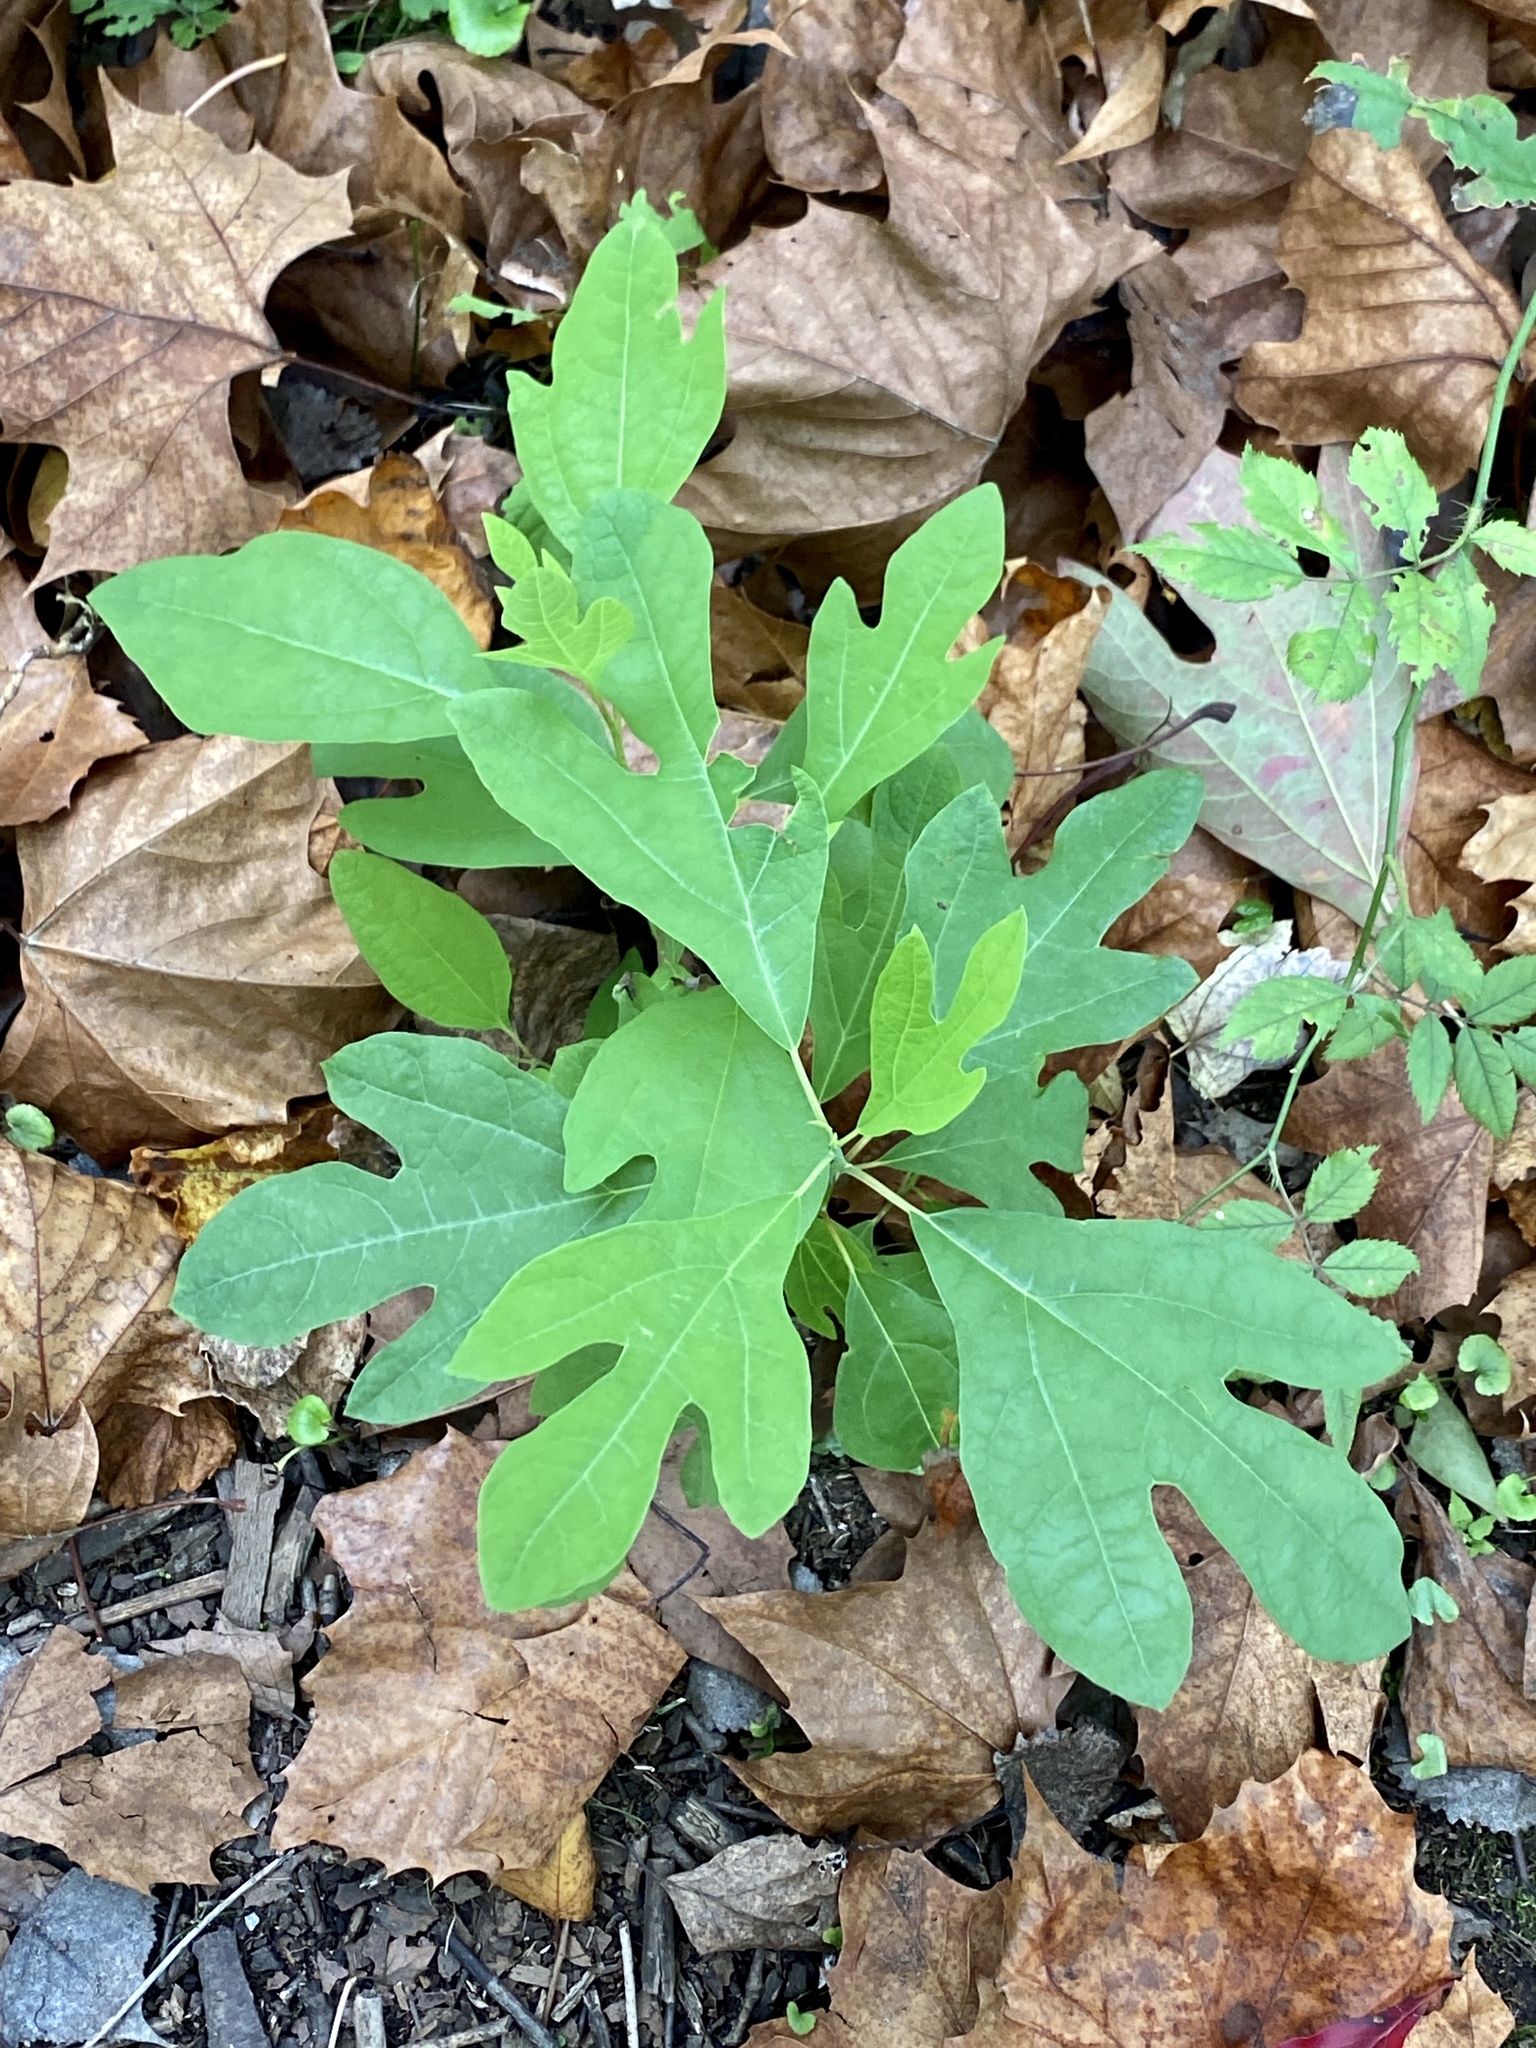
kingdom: Plantae
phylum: Tracheophyta
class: Magnoliopsida
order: Laurales
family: Lauraceae
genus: Sassafras
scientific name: Sassafras albidum
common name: Sassafras
